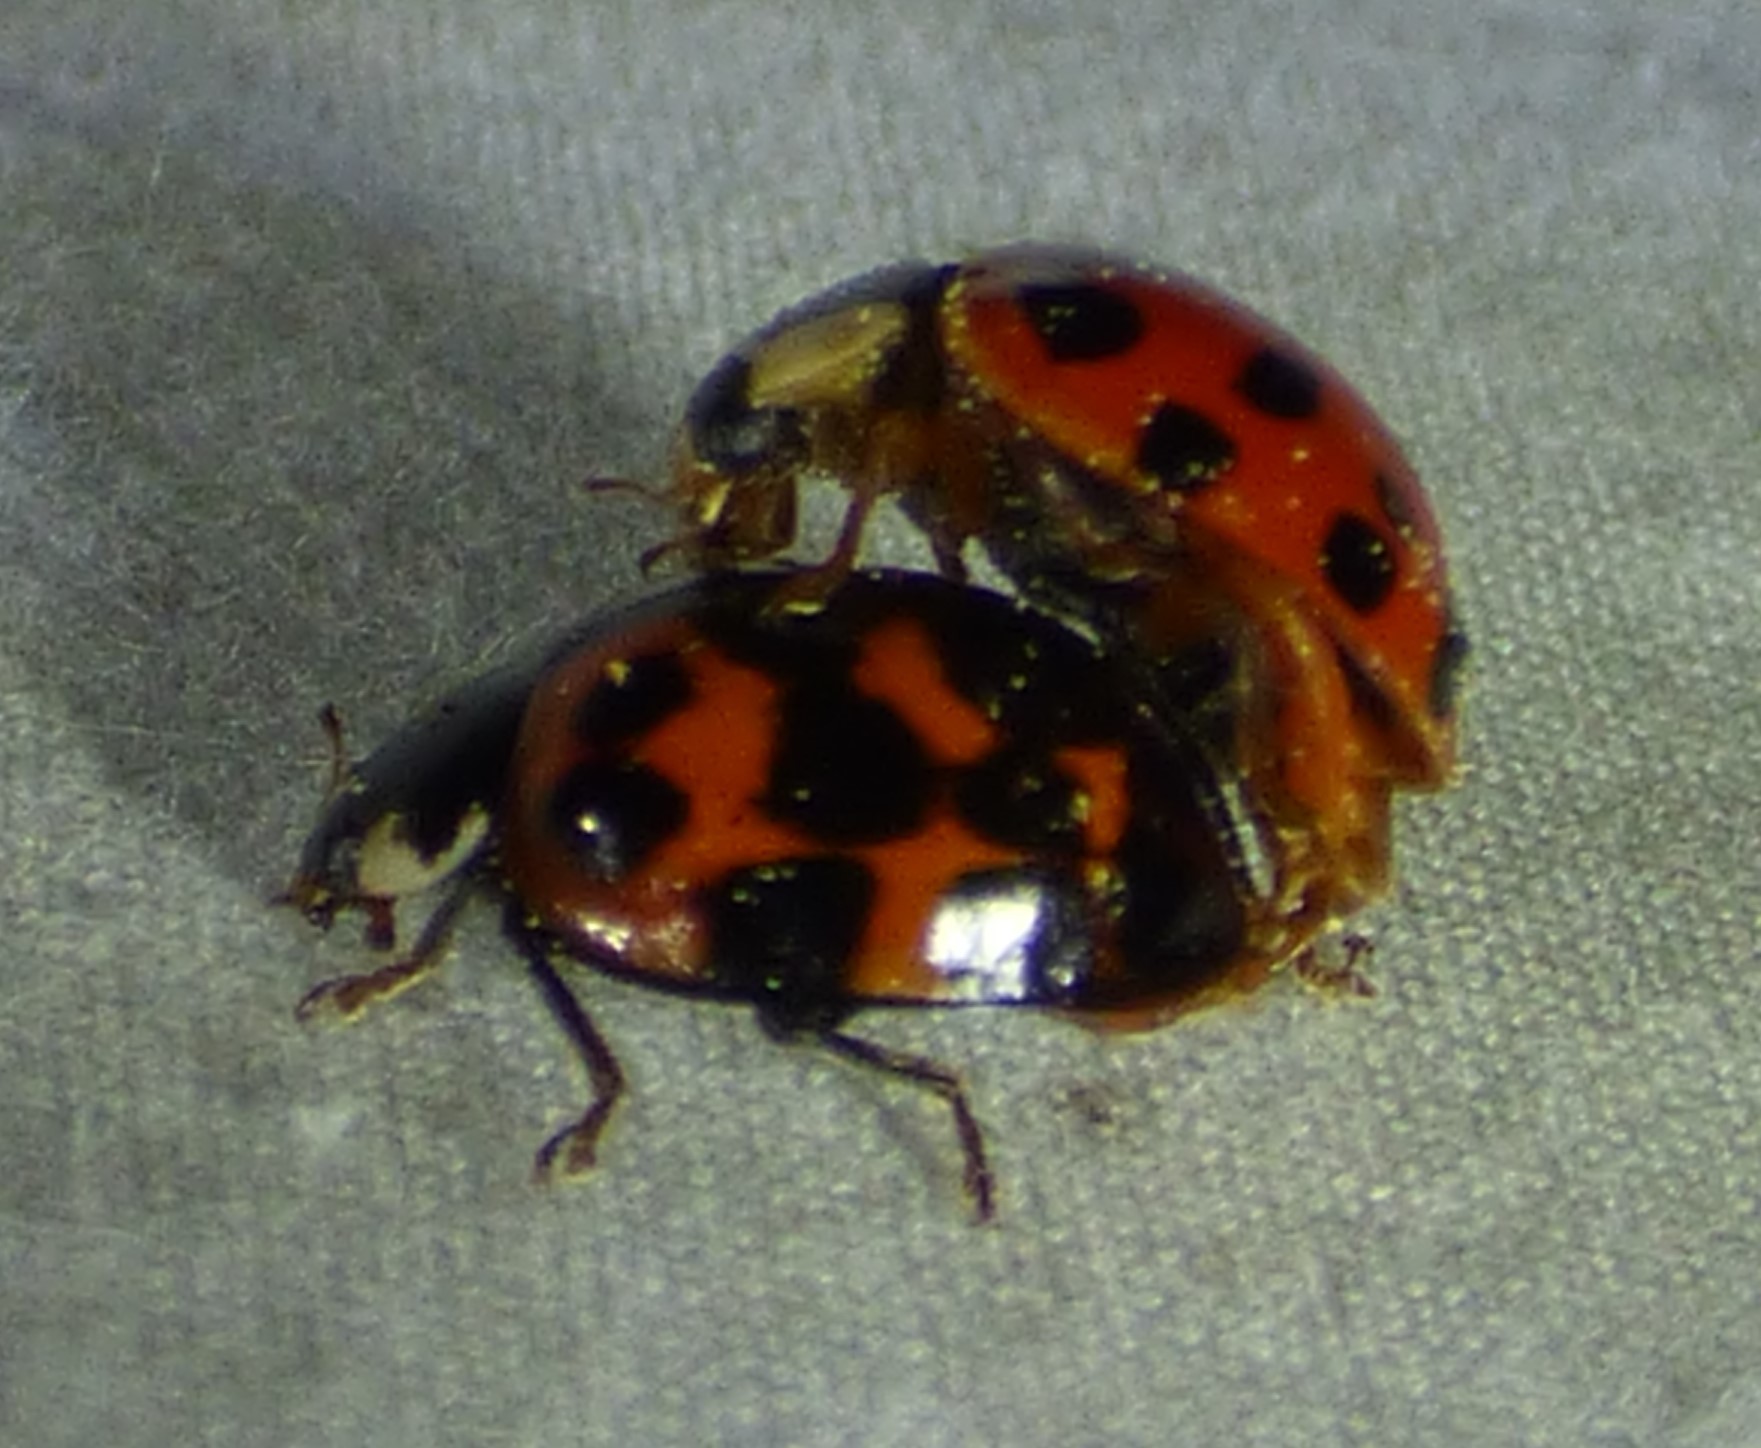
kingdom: Animalia
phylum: Arthropoda
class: Insecta
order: Coleoptera
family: Coccinellidae
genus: Harmonia
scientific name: Harmonia axyridis
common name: Harlequin ladybird
